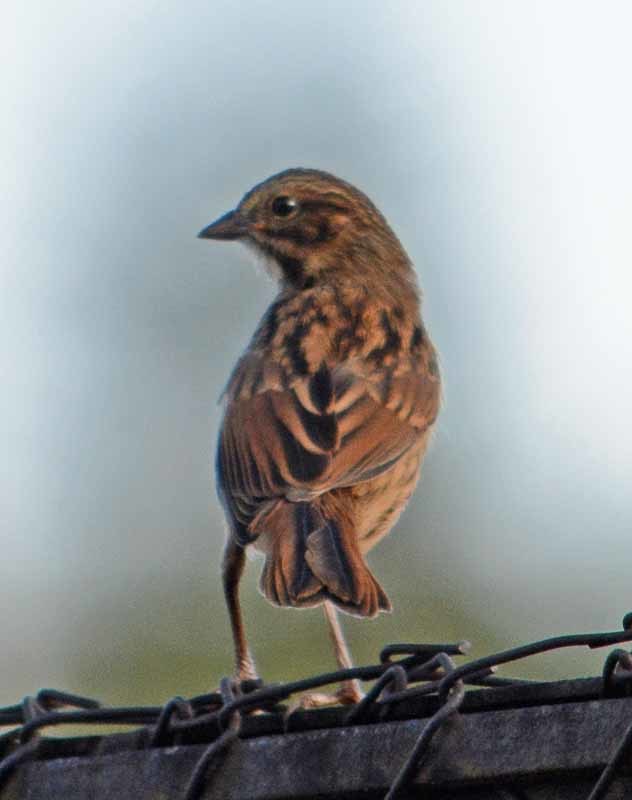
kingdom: Animalia
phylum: Chordata
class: Aves
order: Passeriformes
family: Passerellidae
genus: Melospiza
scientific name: Melospiza melodia
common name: Song sparrow
